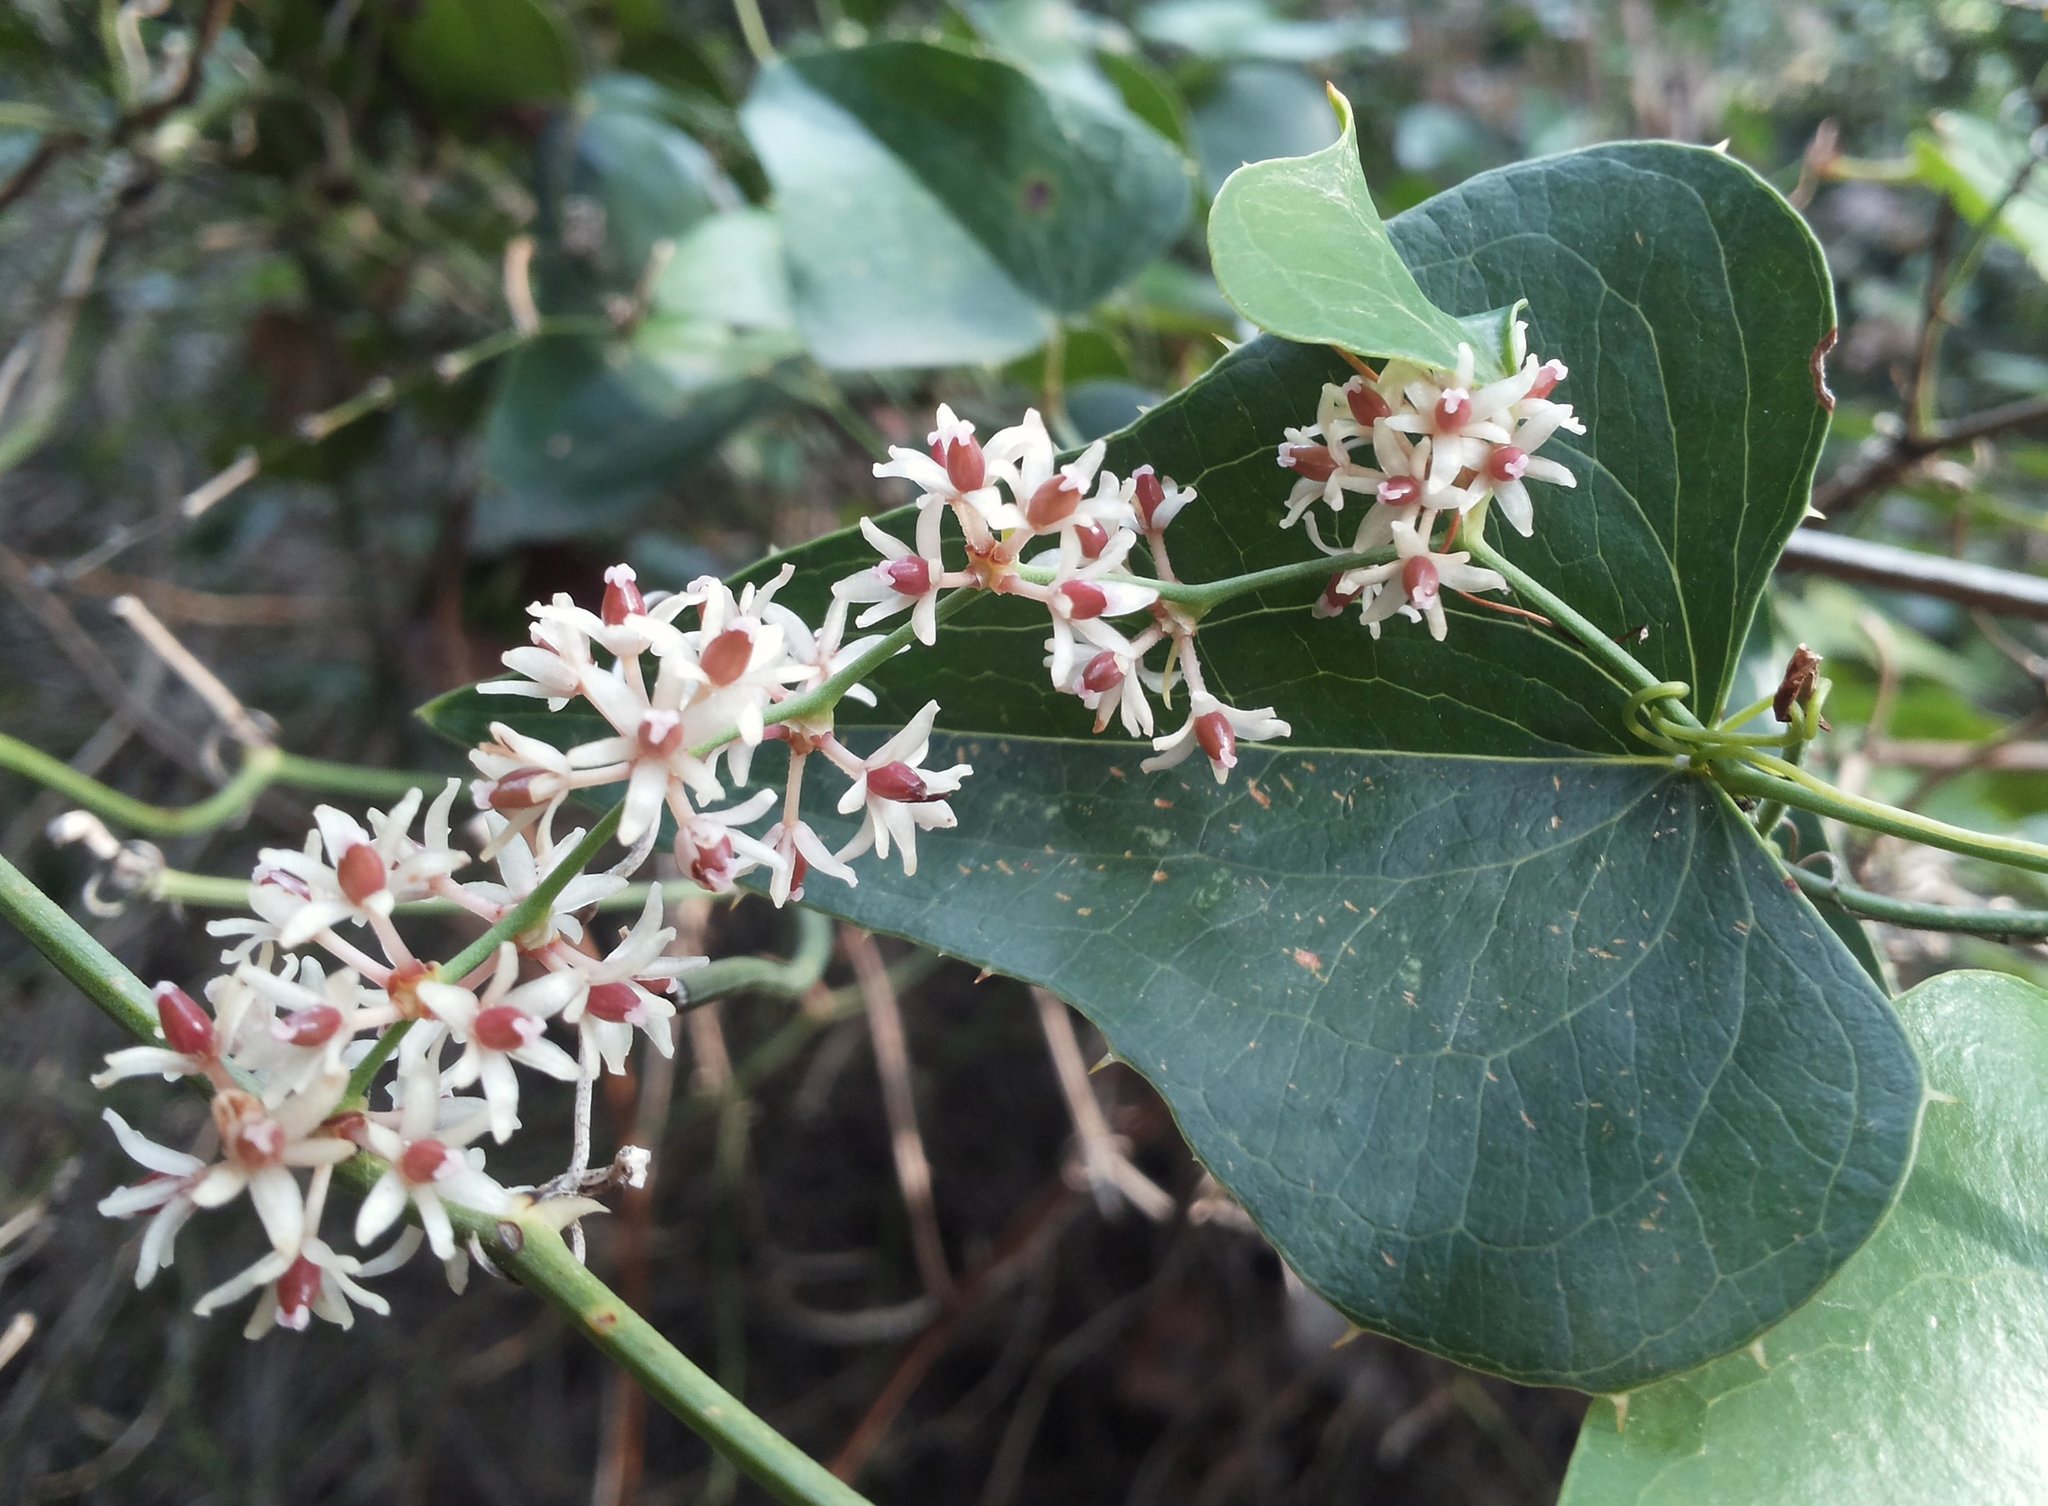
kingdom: Plantae
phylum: Tracheophyta
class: Liliopsida
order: Liliales
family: Smilacaceae
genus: Smilax
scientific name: Smilax aspera
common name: Common smilax
